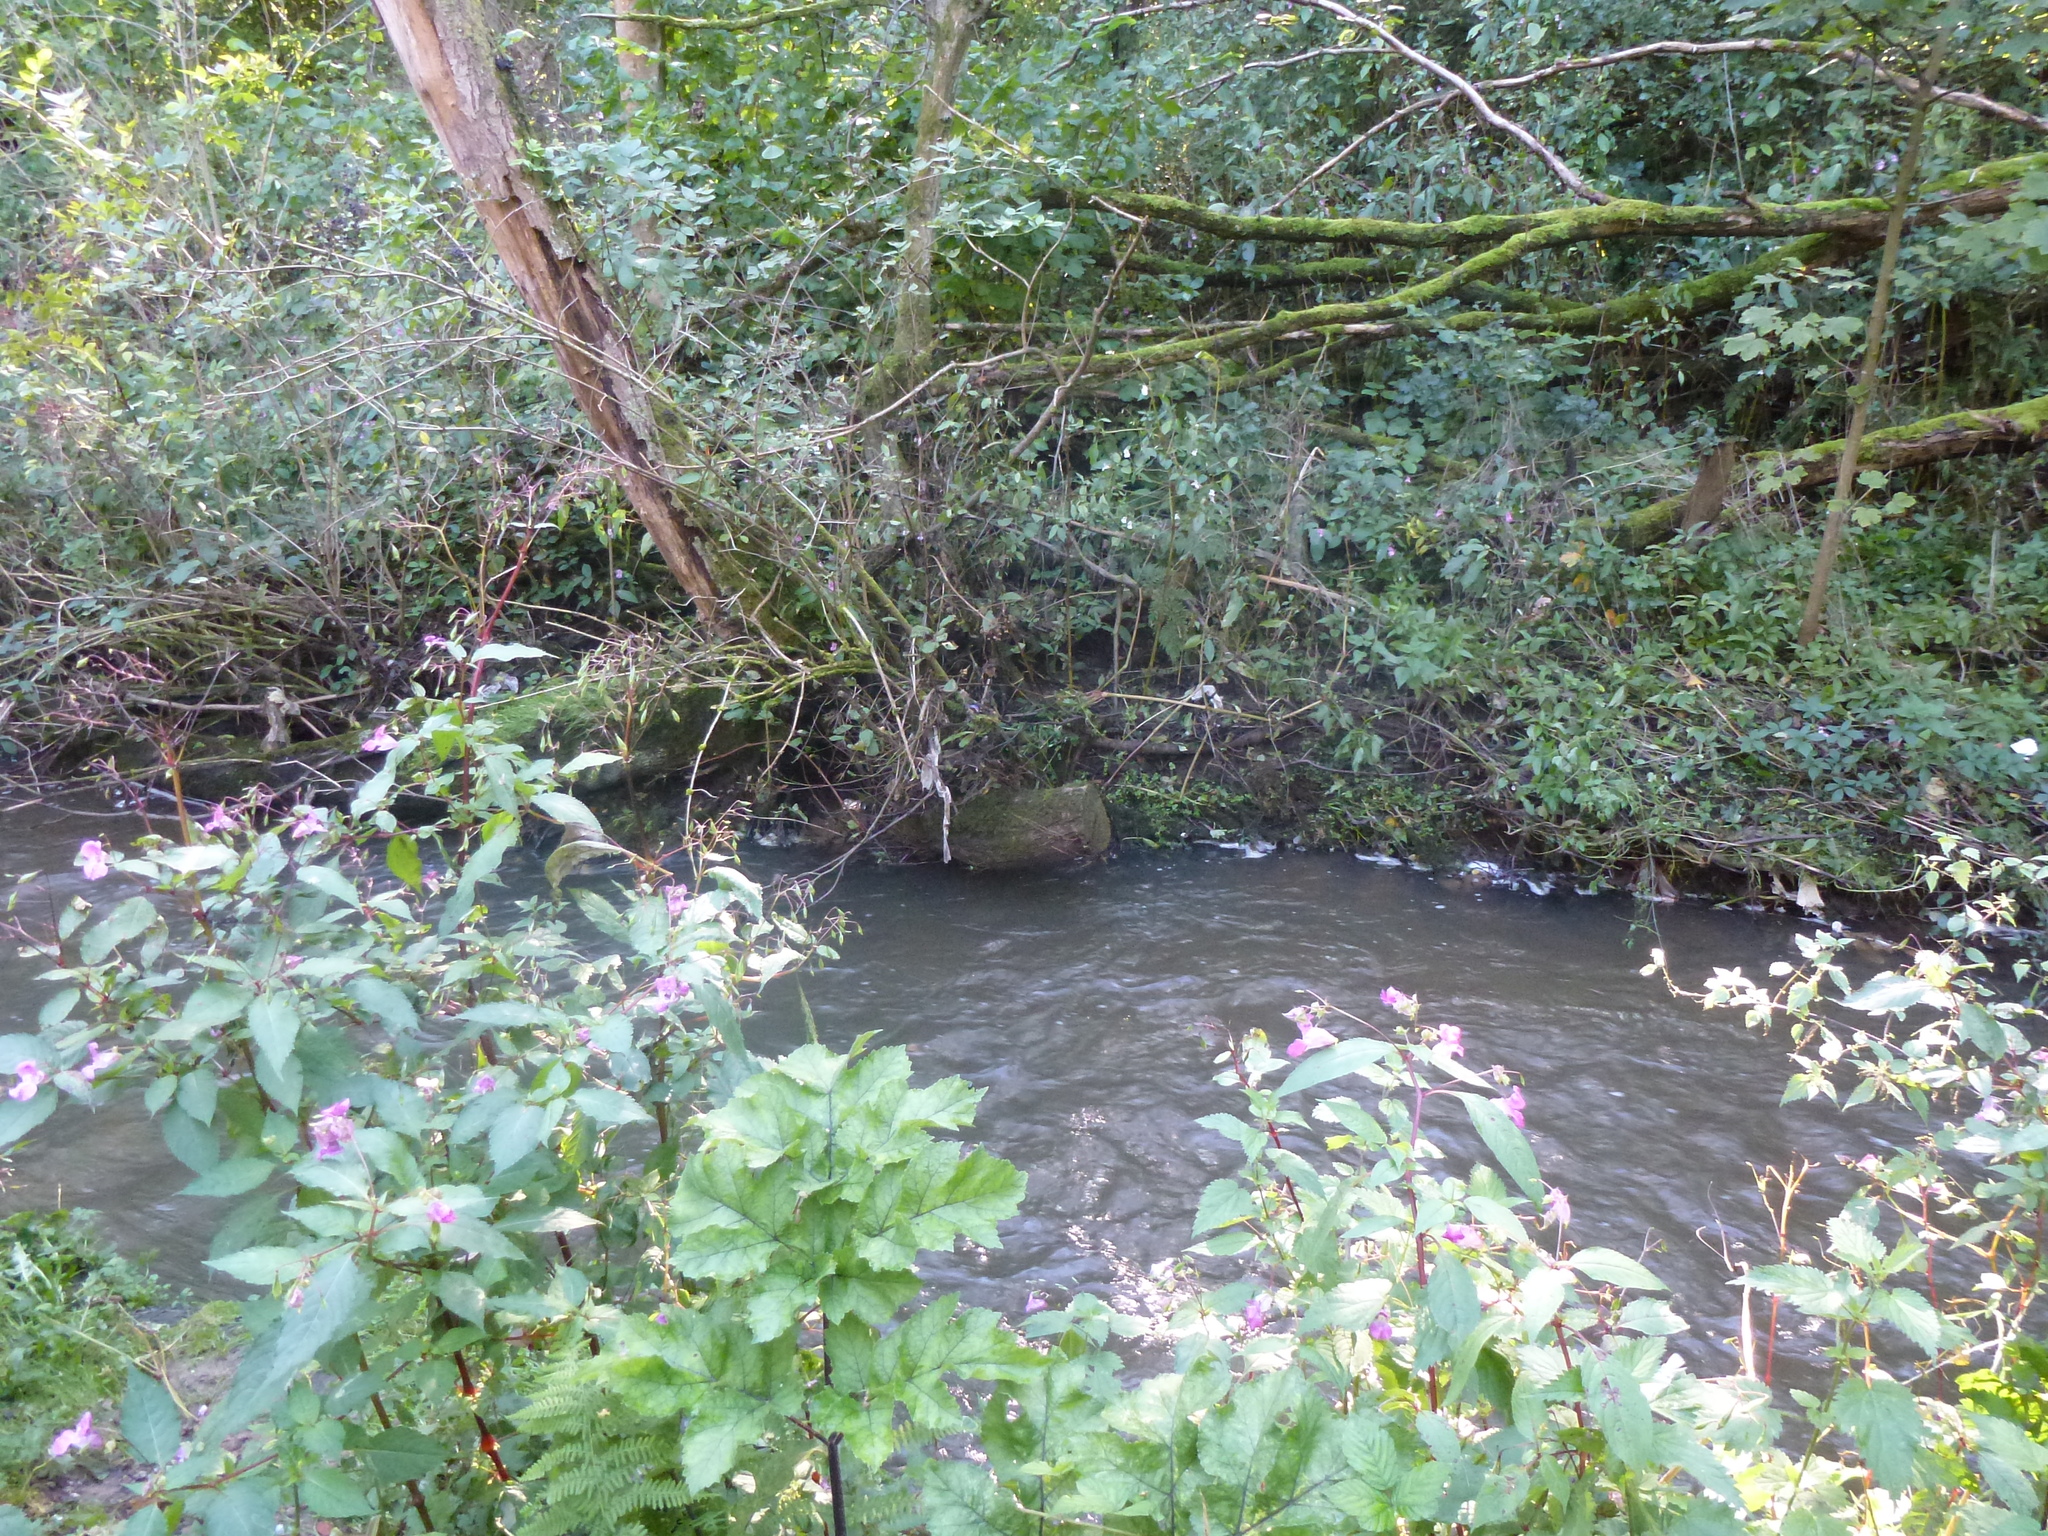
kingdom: Plantae
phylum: Tracheophyta
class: Magnoliopsida
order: Ericales
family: Balsaminaceae
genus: Impatiens
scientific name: Impatiens glandulifera
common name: Himalayan balsam
